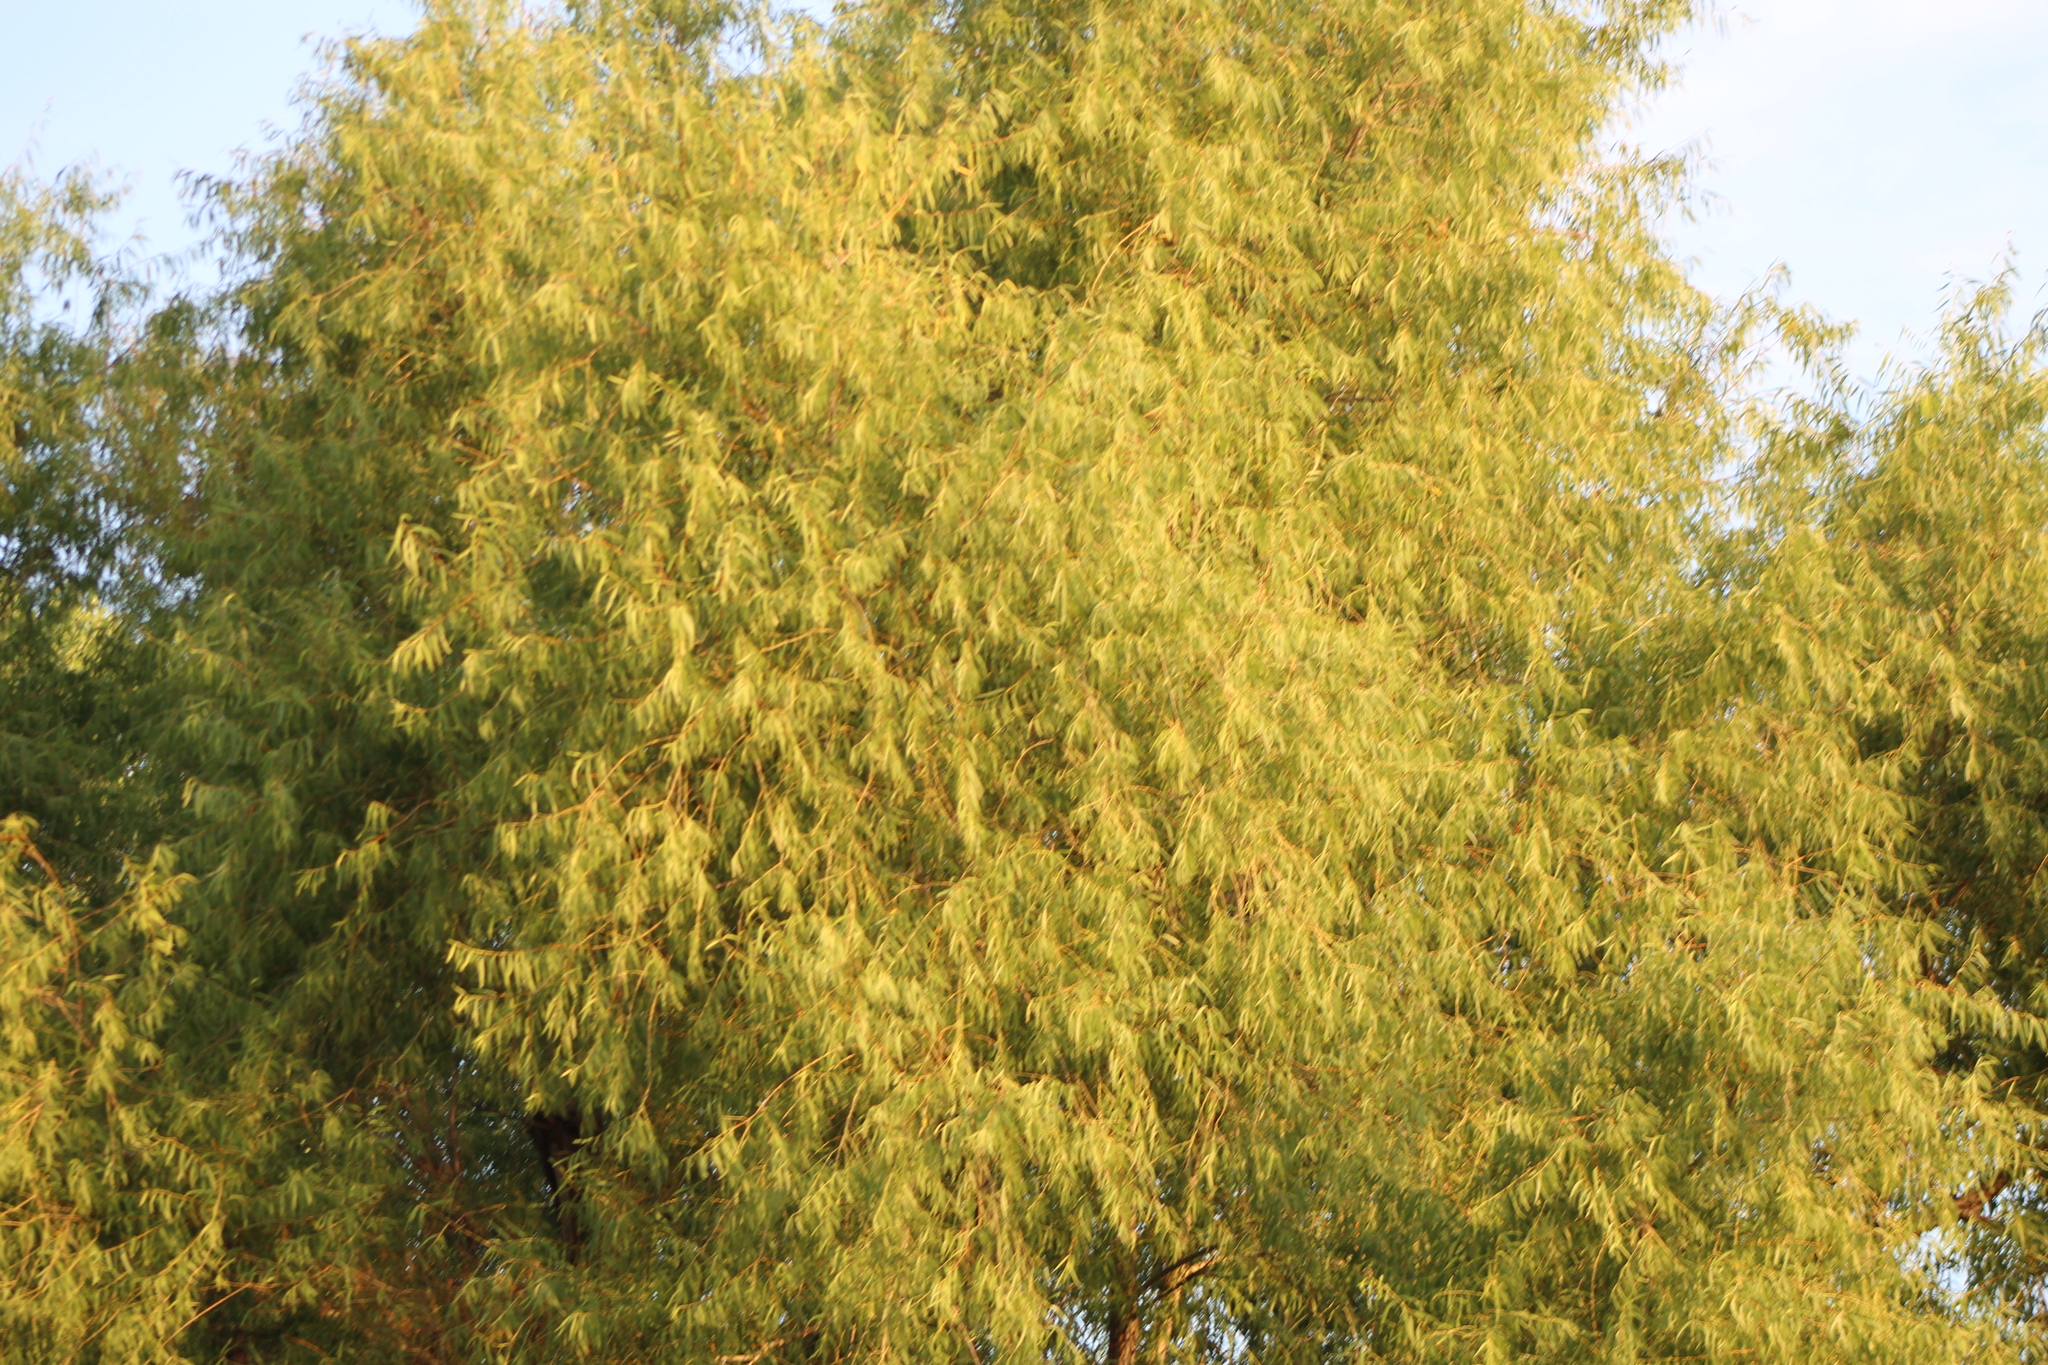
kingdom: Plantae
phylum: Tracheophyta
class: Magnoliopsida
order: Malpighiales
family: Salicaceae
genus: Salix
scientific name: Salix nigra
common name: Black willow
